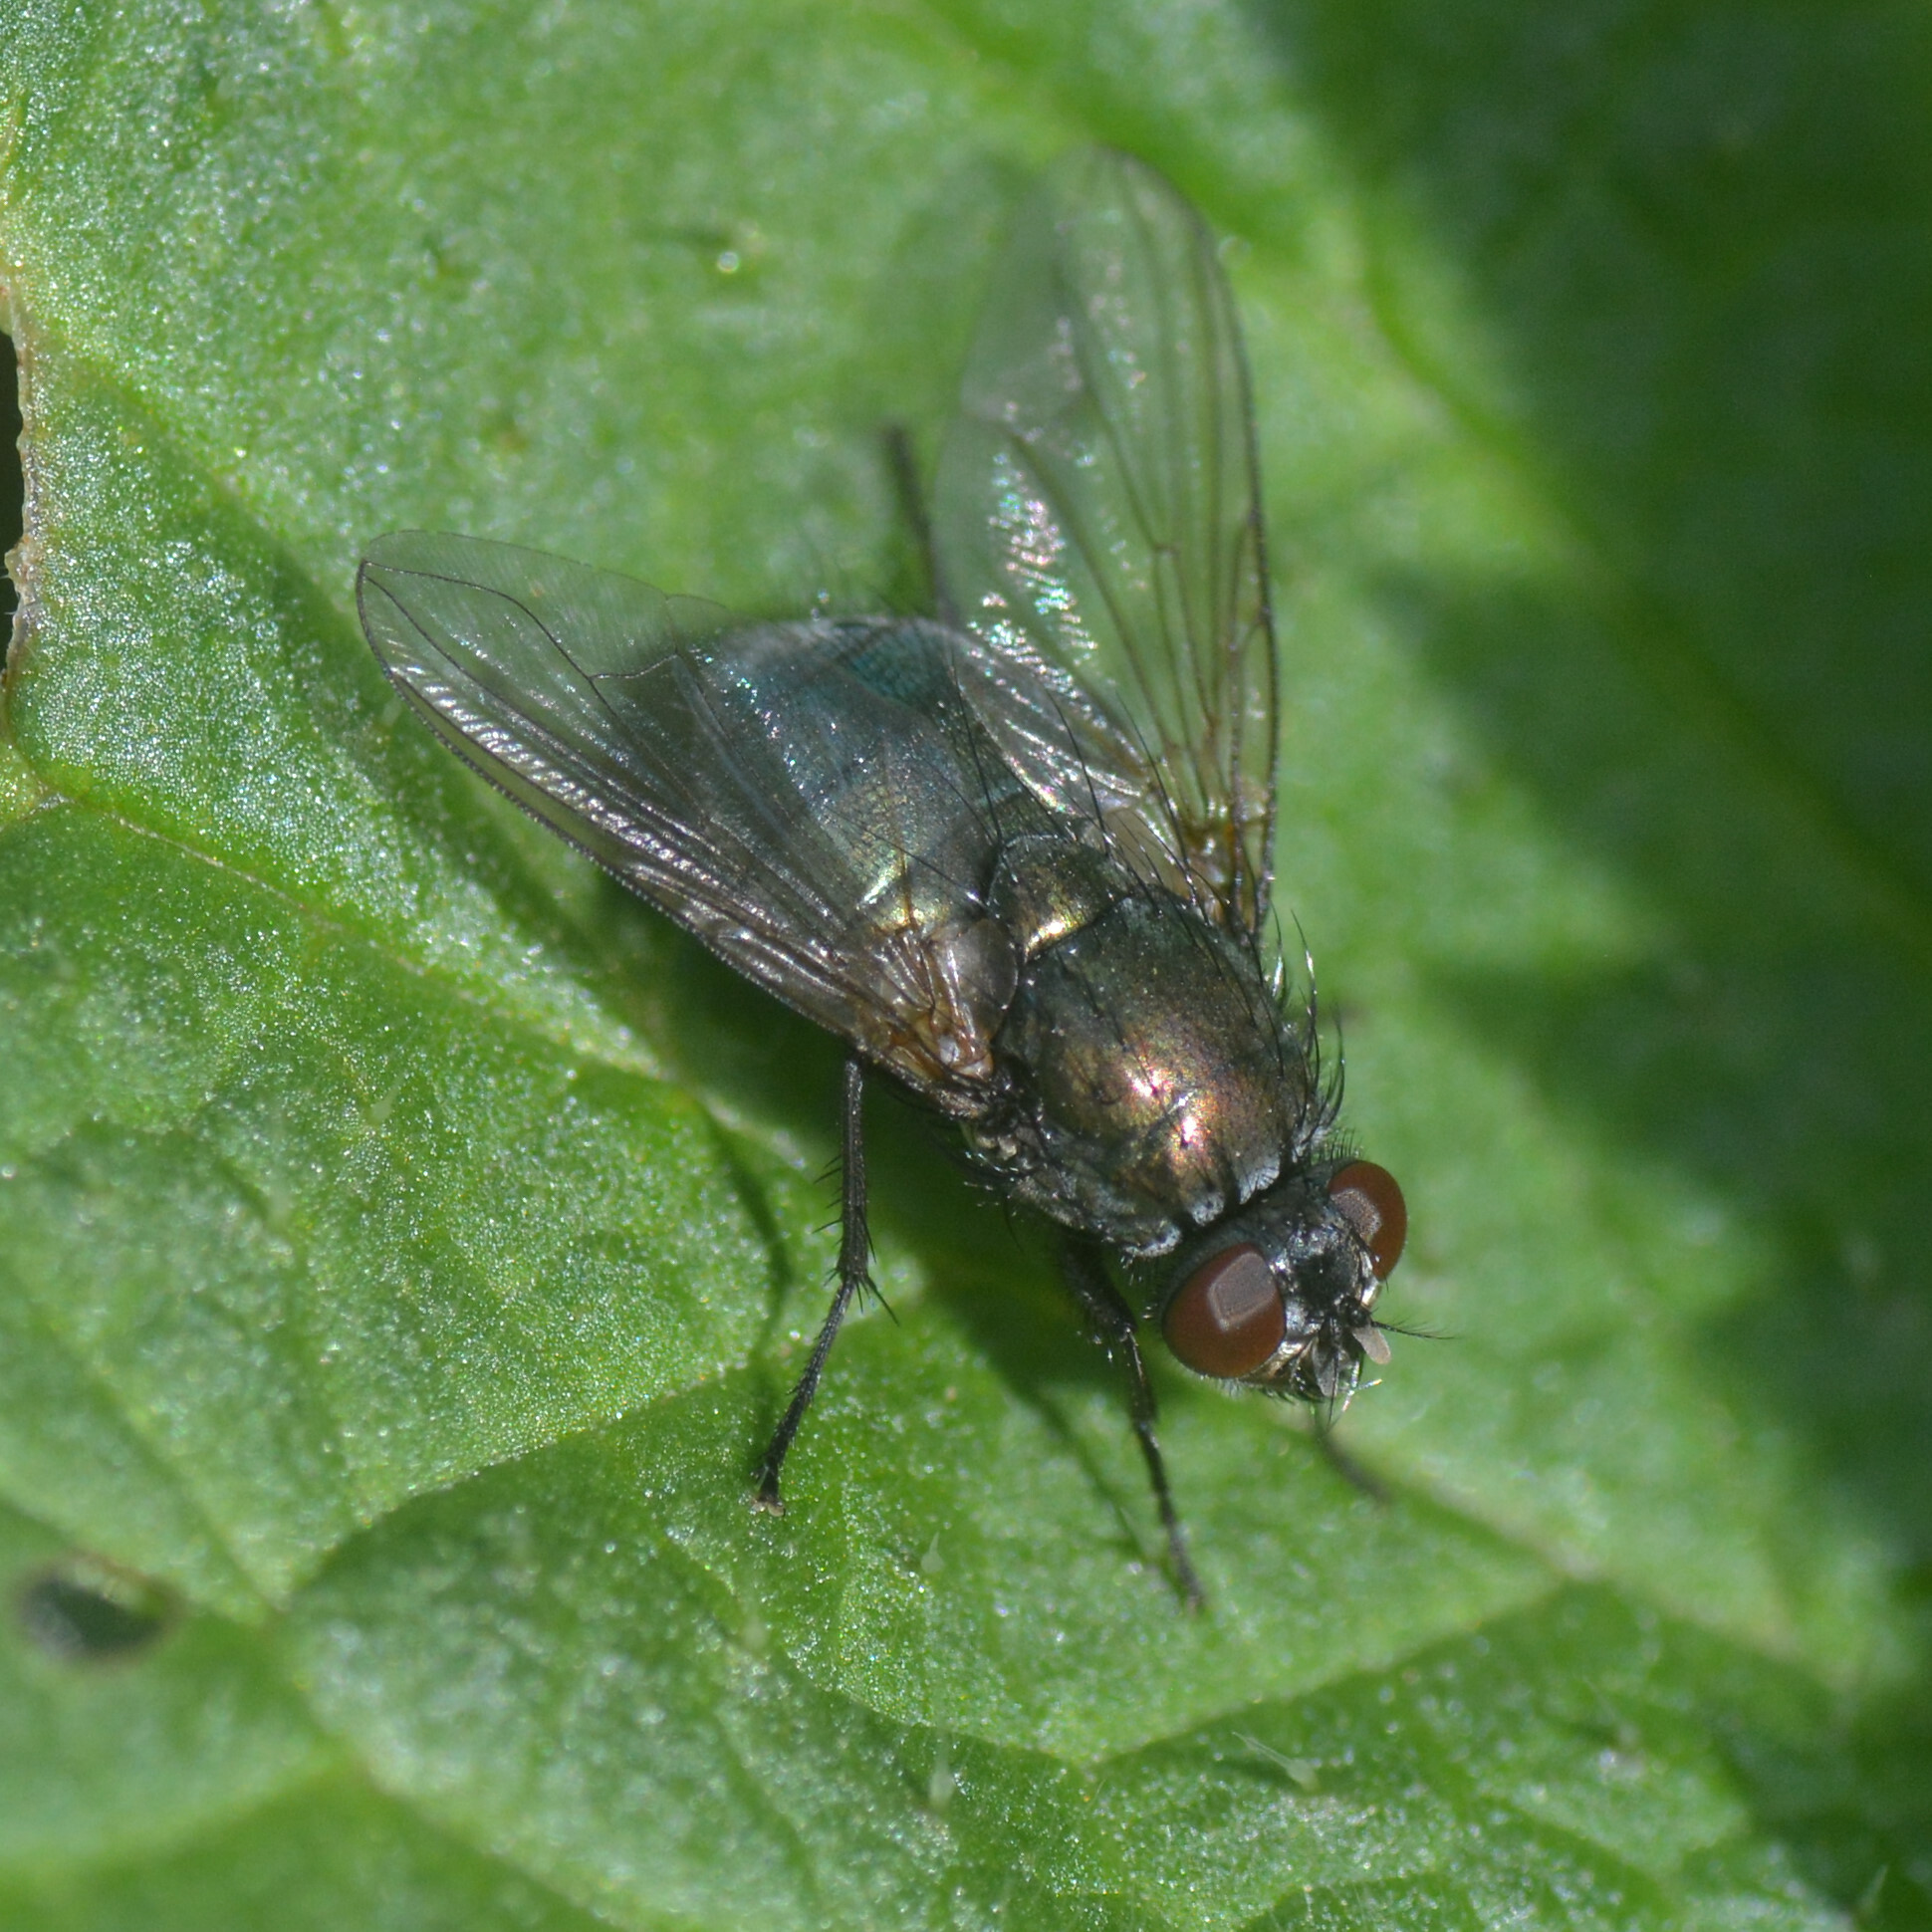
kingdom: Animalia
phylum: Arthropoda
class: Insecta
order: Diptera
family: Muscidae
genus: Dasyphora
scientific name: Dasyphora cyanella
